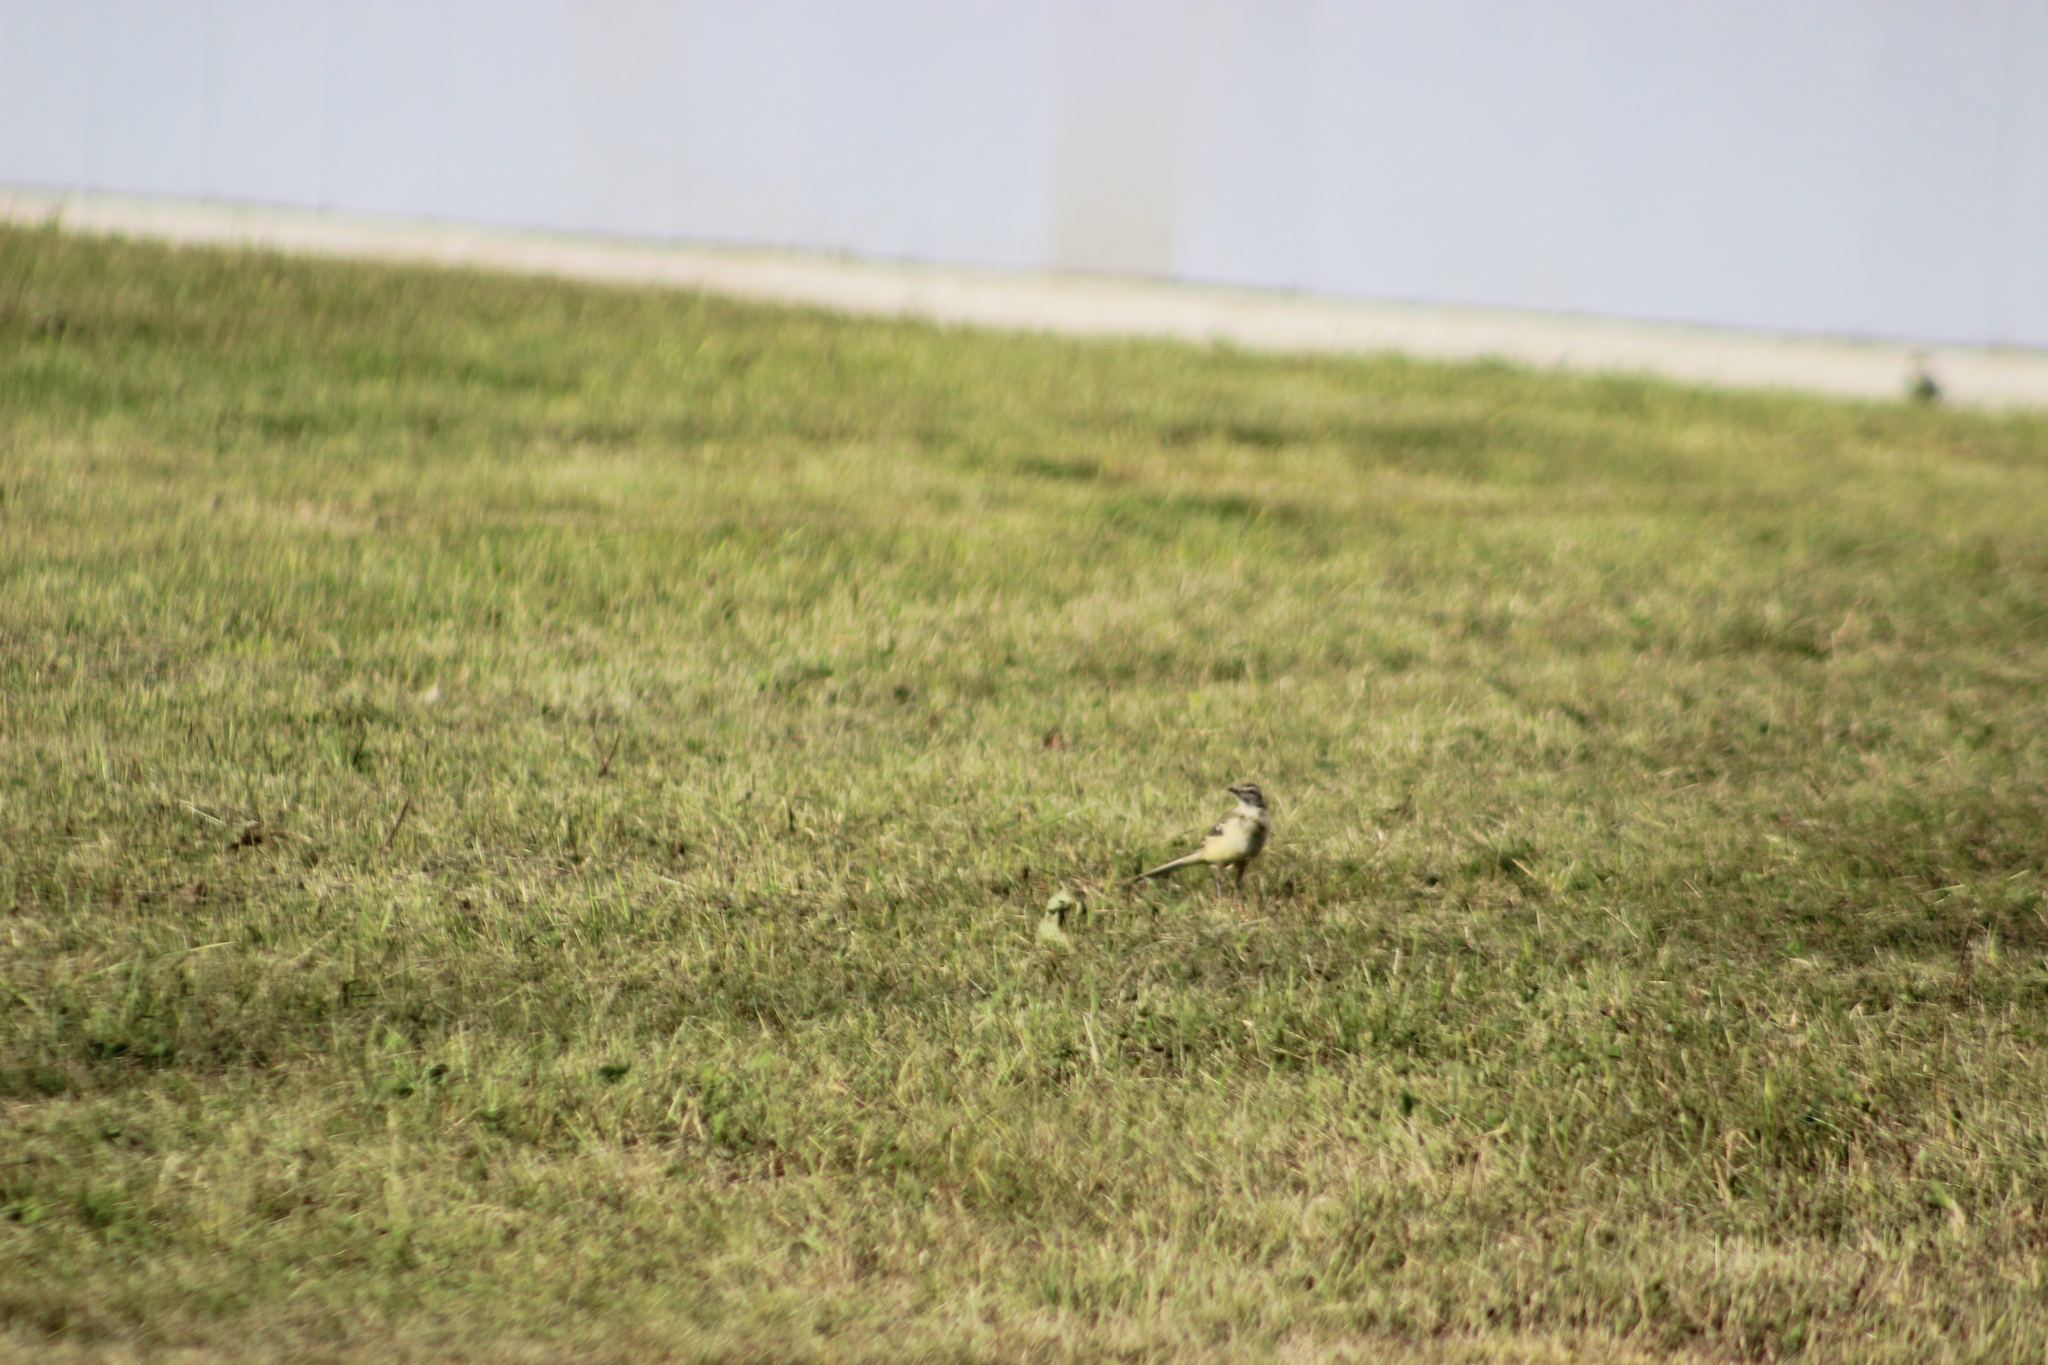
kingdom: Animalia
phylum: Chordata
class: Aves
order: Passeriformes
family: Motacillidae
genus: Motacilla
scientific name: Motacilla flava
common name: Western yellow wagtail
